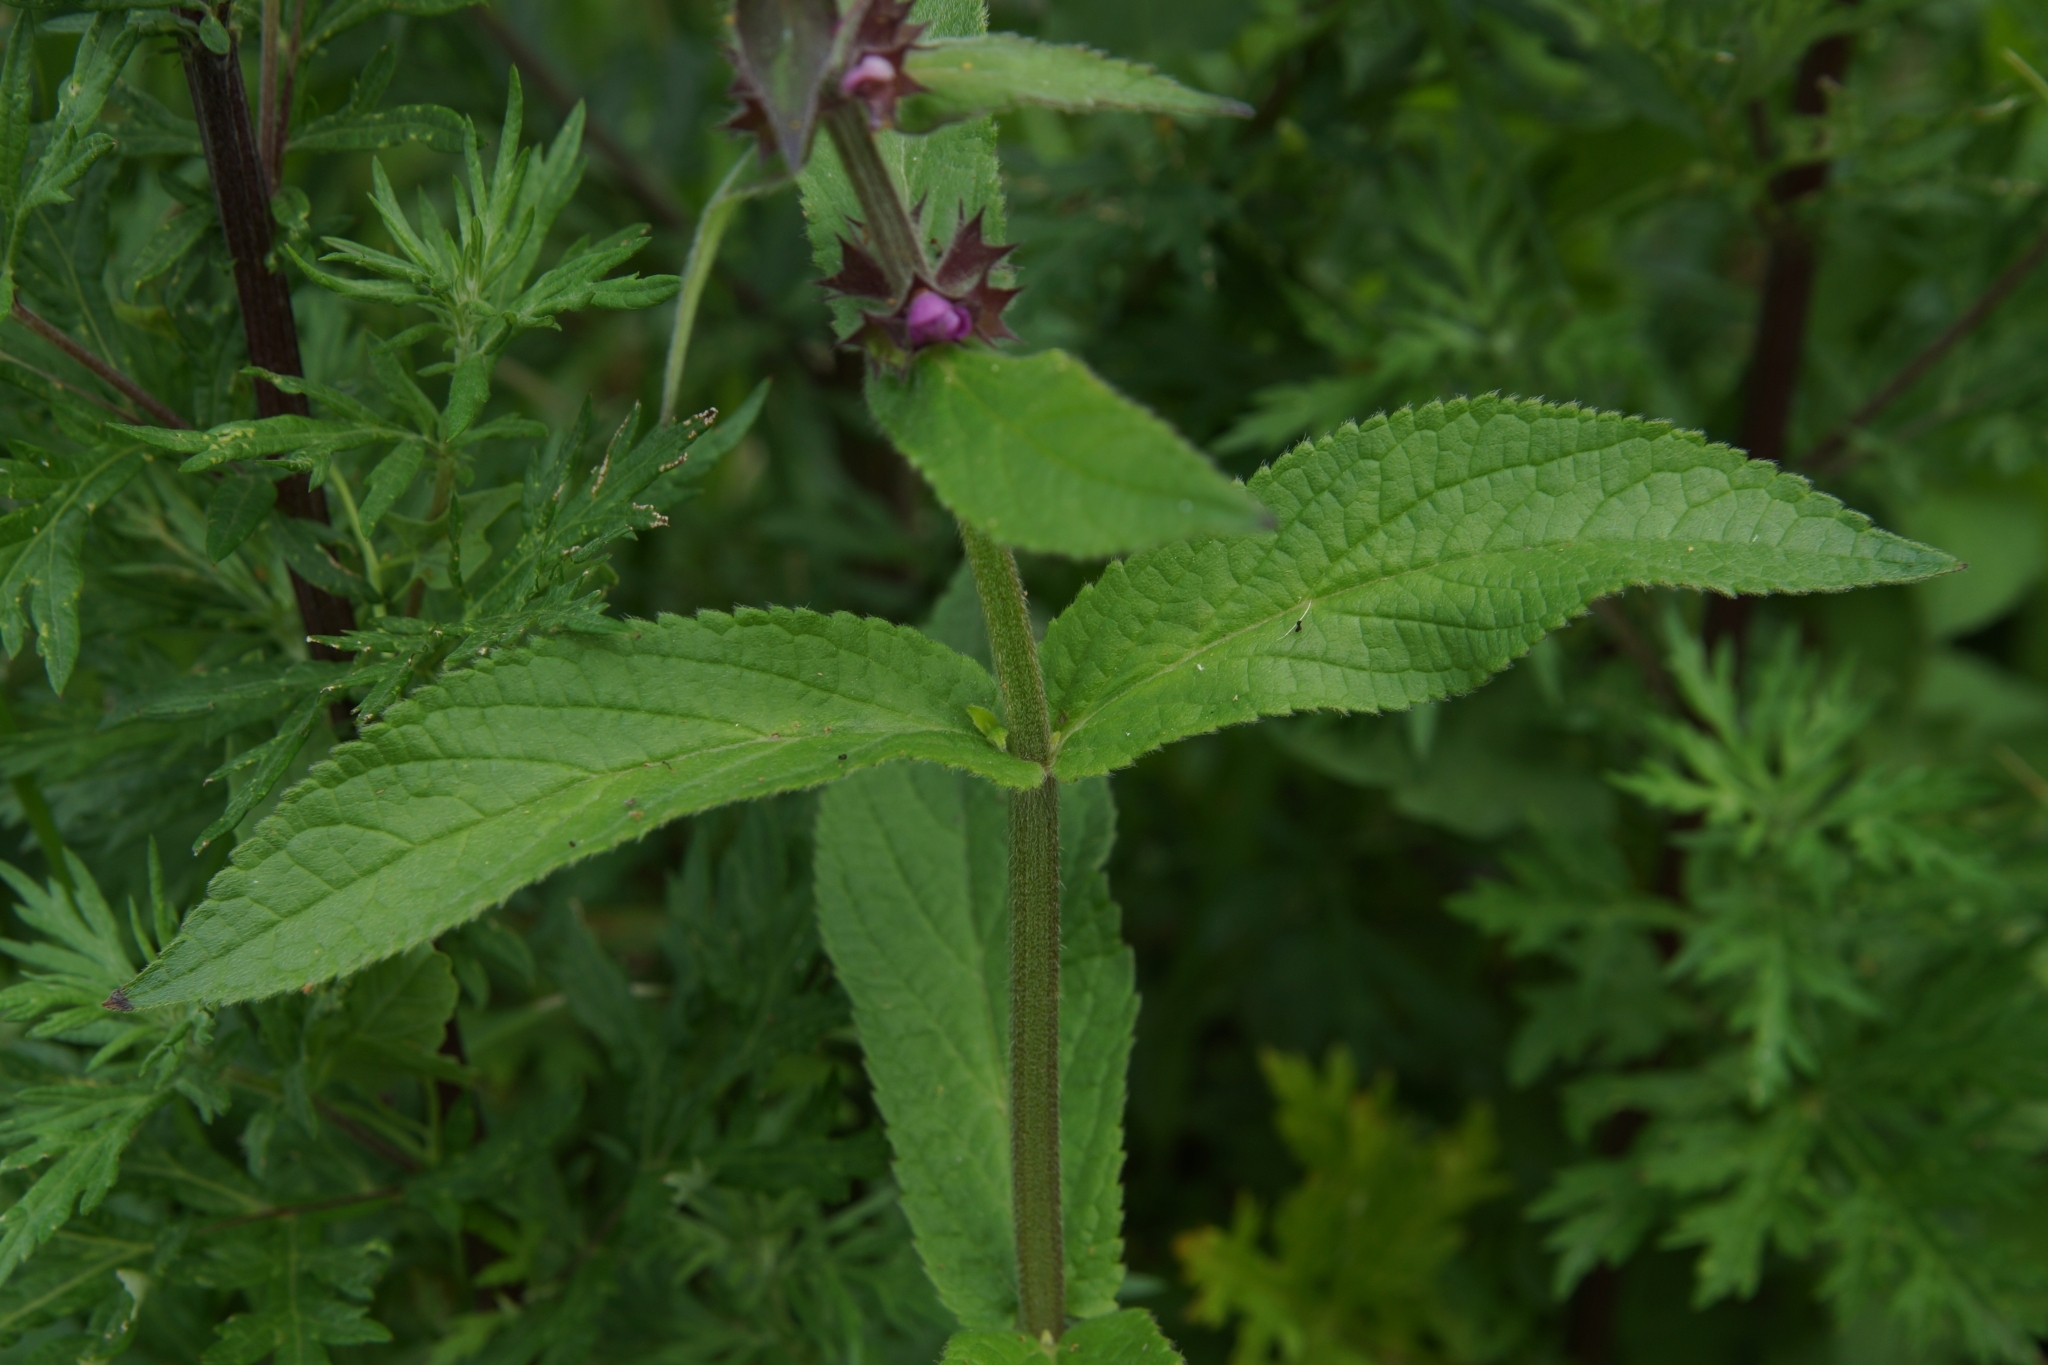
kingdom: Plantae
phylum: Tracheophyta
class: Magnoliopsida
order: Lamiales
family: Lamiaceae
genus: Stachys
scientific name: Stachys palustris
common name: Marsh woundwort
